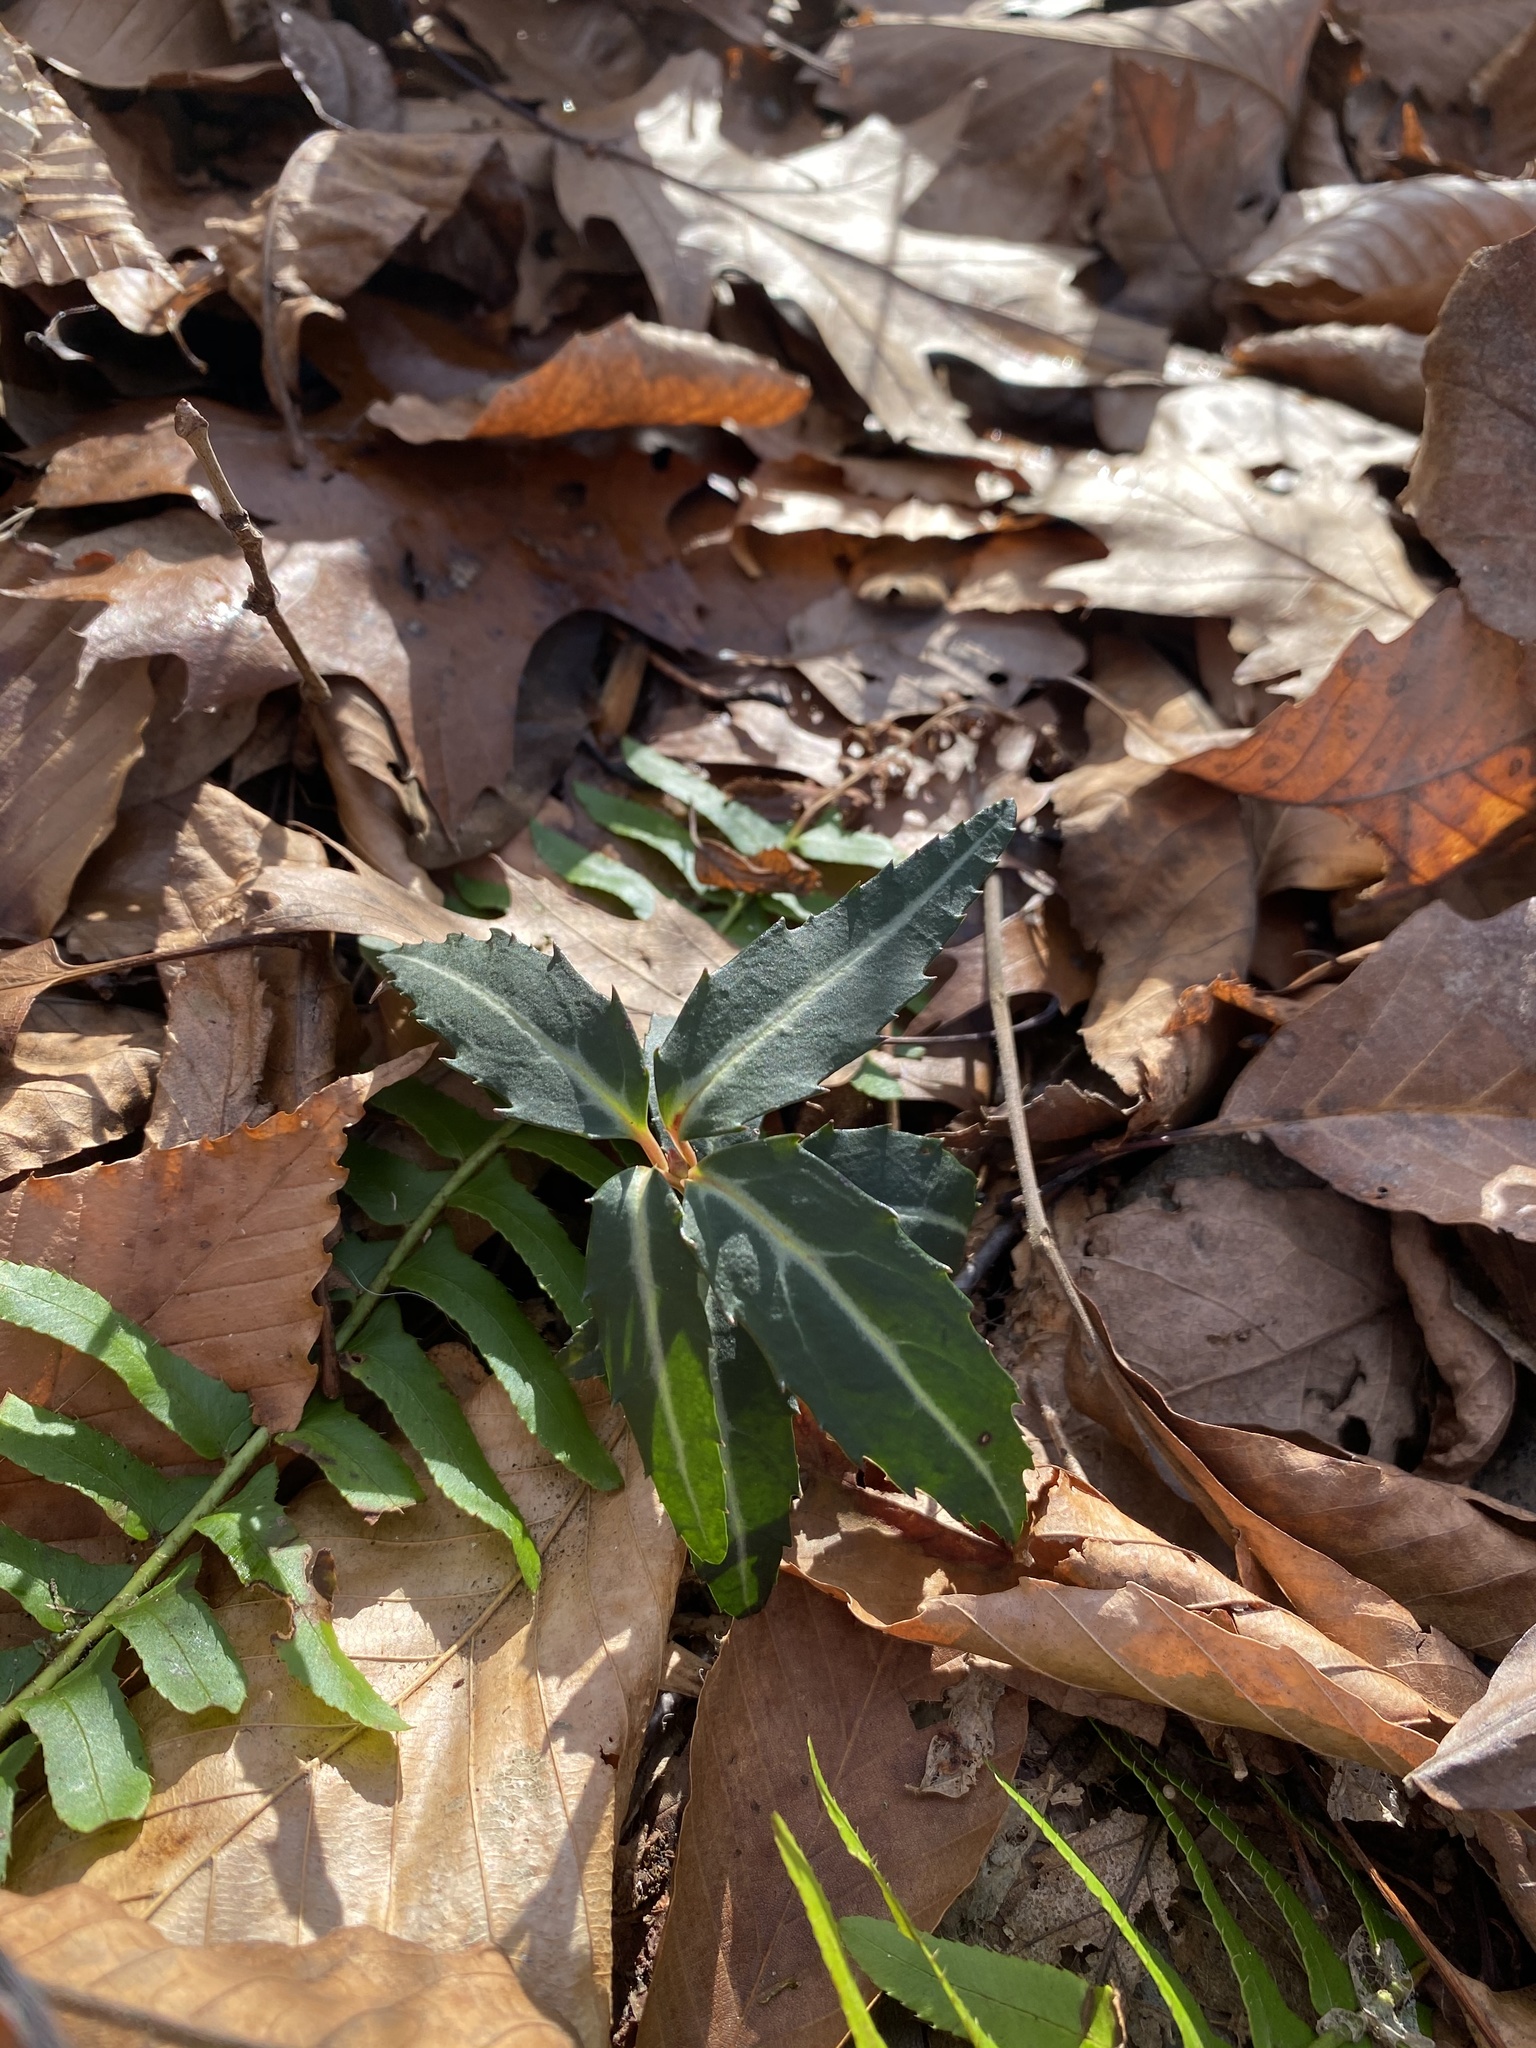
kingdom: Plantae
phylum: Tracheophyta
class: Magnoliopsida
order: Ericales
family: Ericaceae
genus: Chimaphila
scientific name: Chimaphila maculata
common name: Spotted pipsissewa
